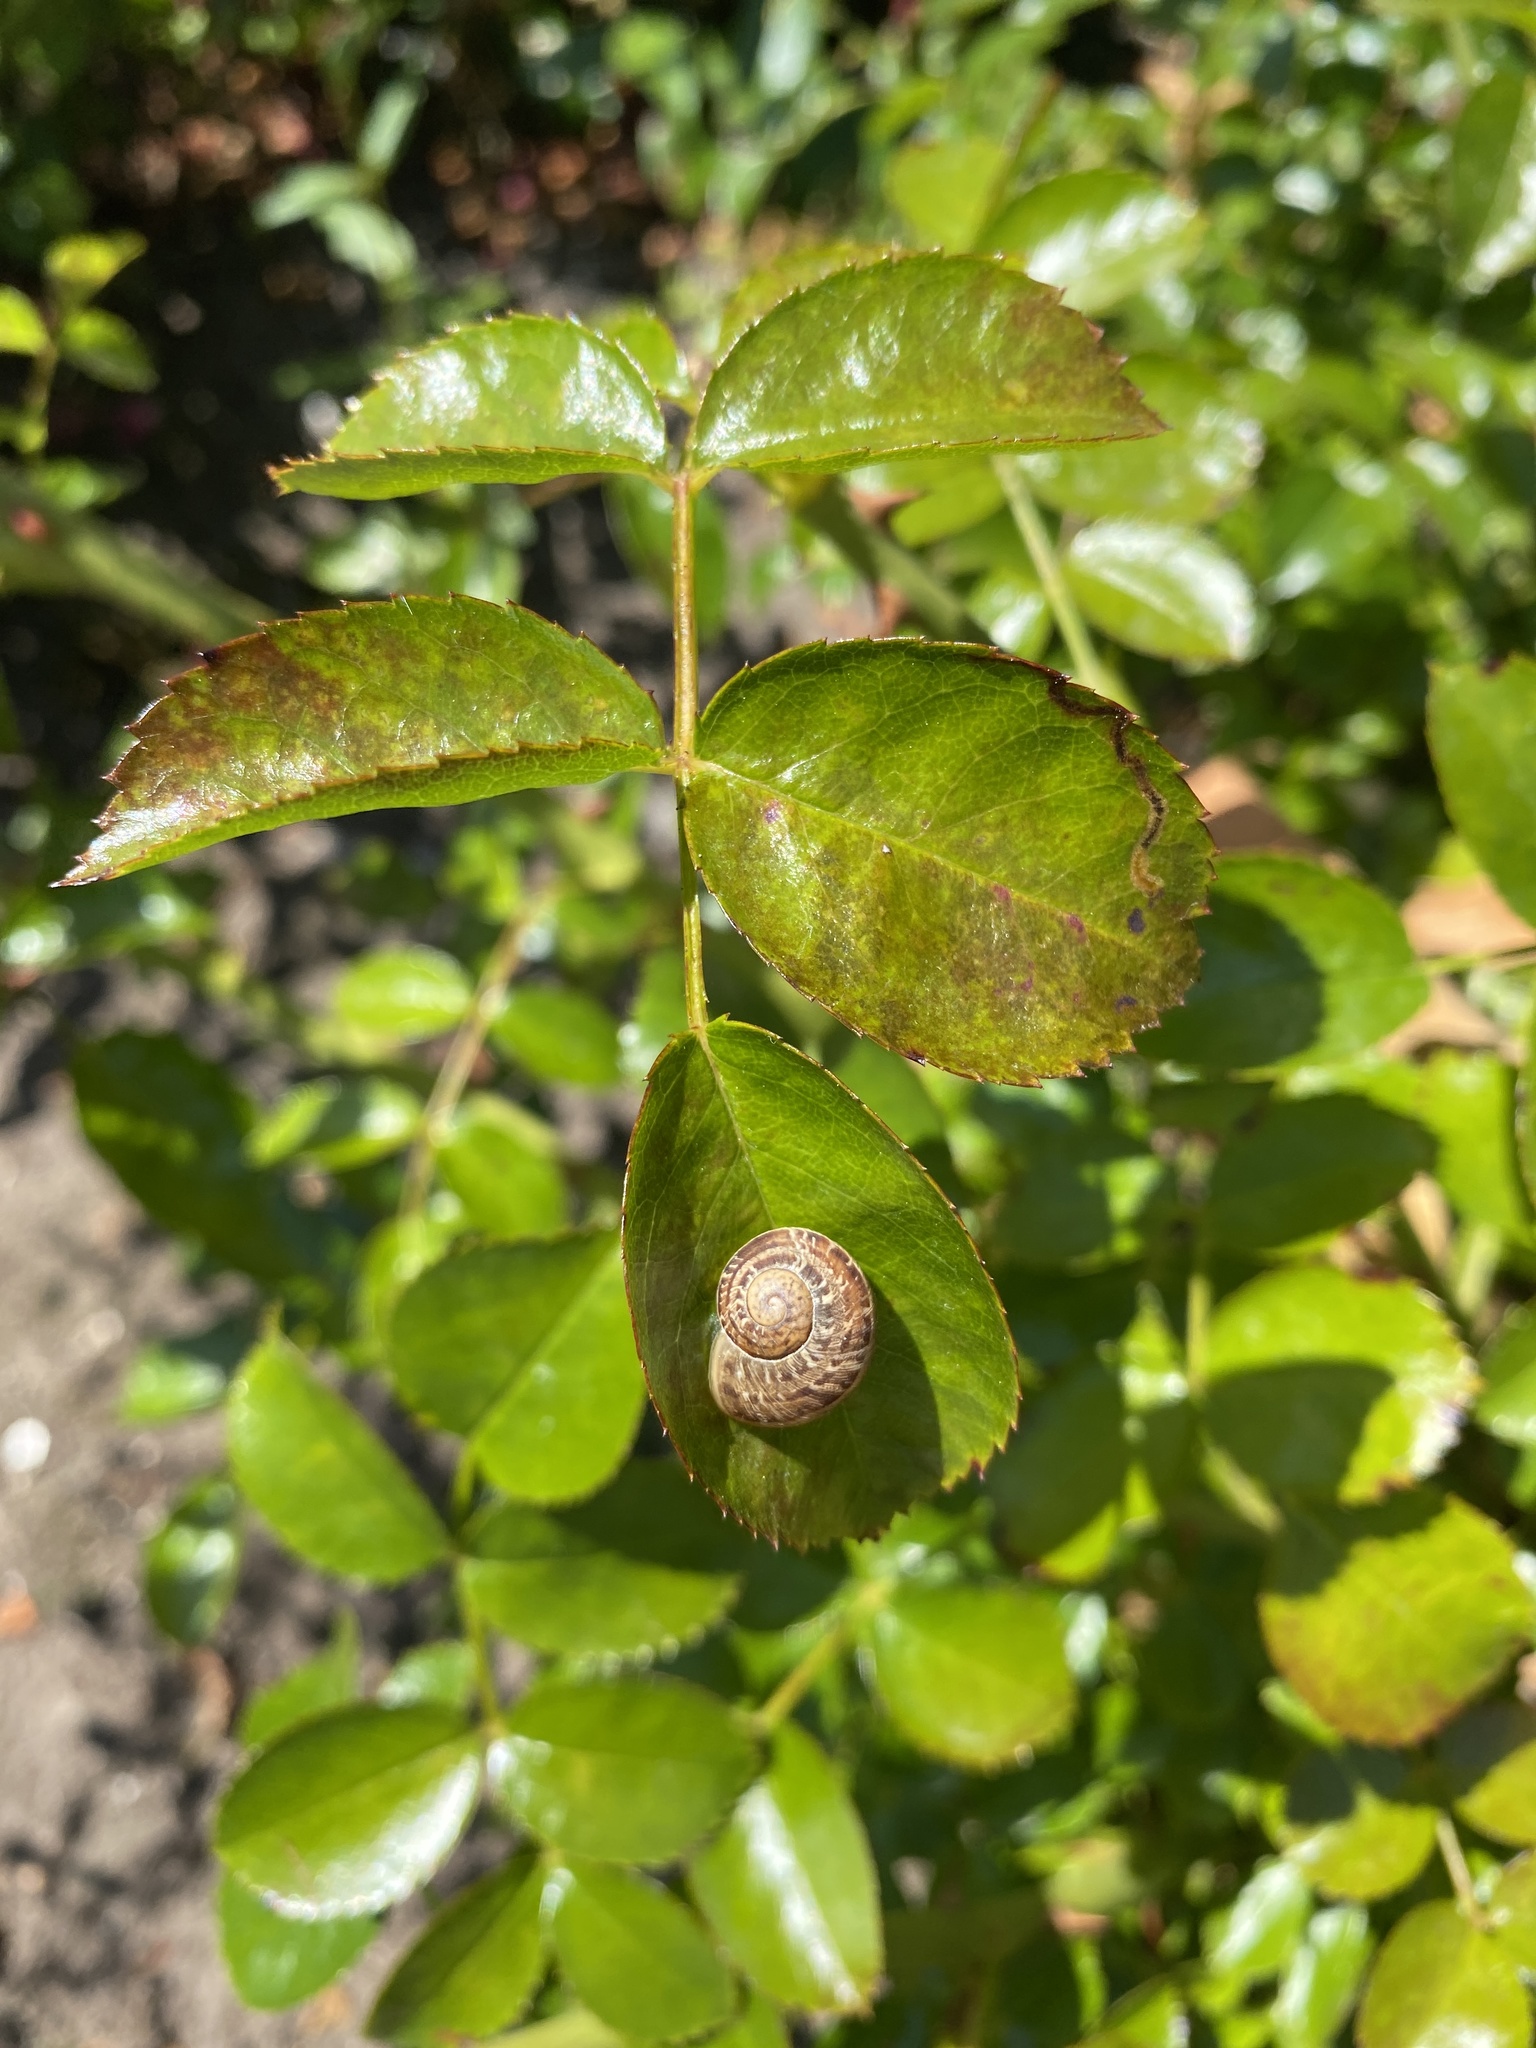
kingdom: Animalia
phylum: Mollusca
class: Gastropoda
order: Stylommatophora
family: Helicidae
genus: Cornu
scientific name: Cornu aspersum
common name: Brown garden snail
